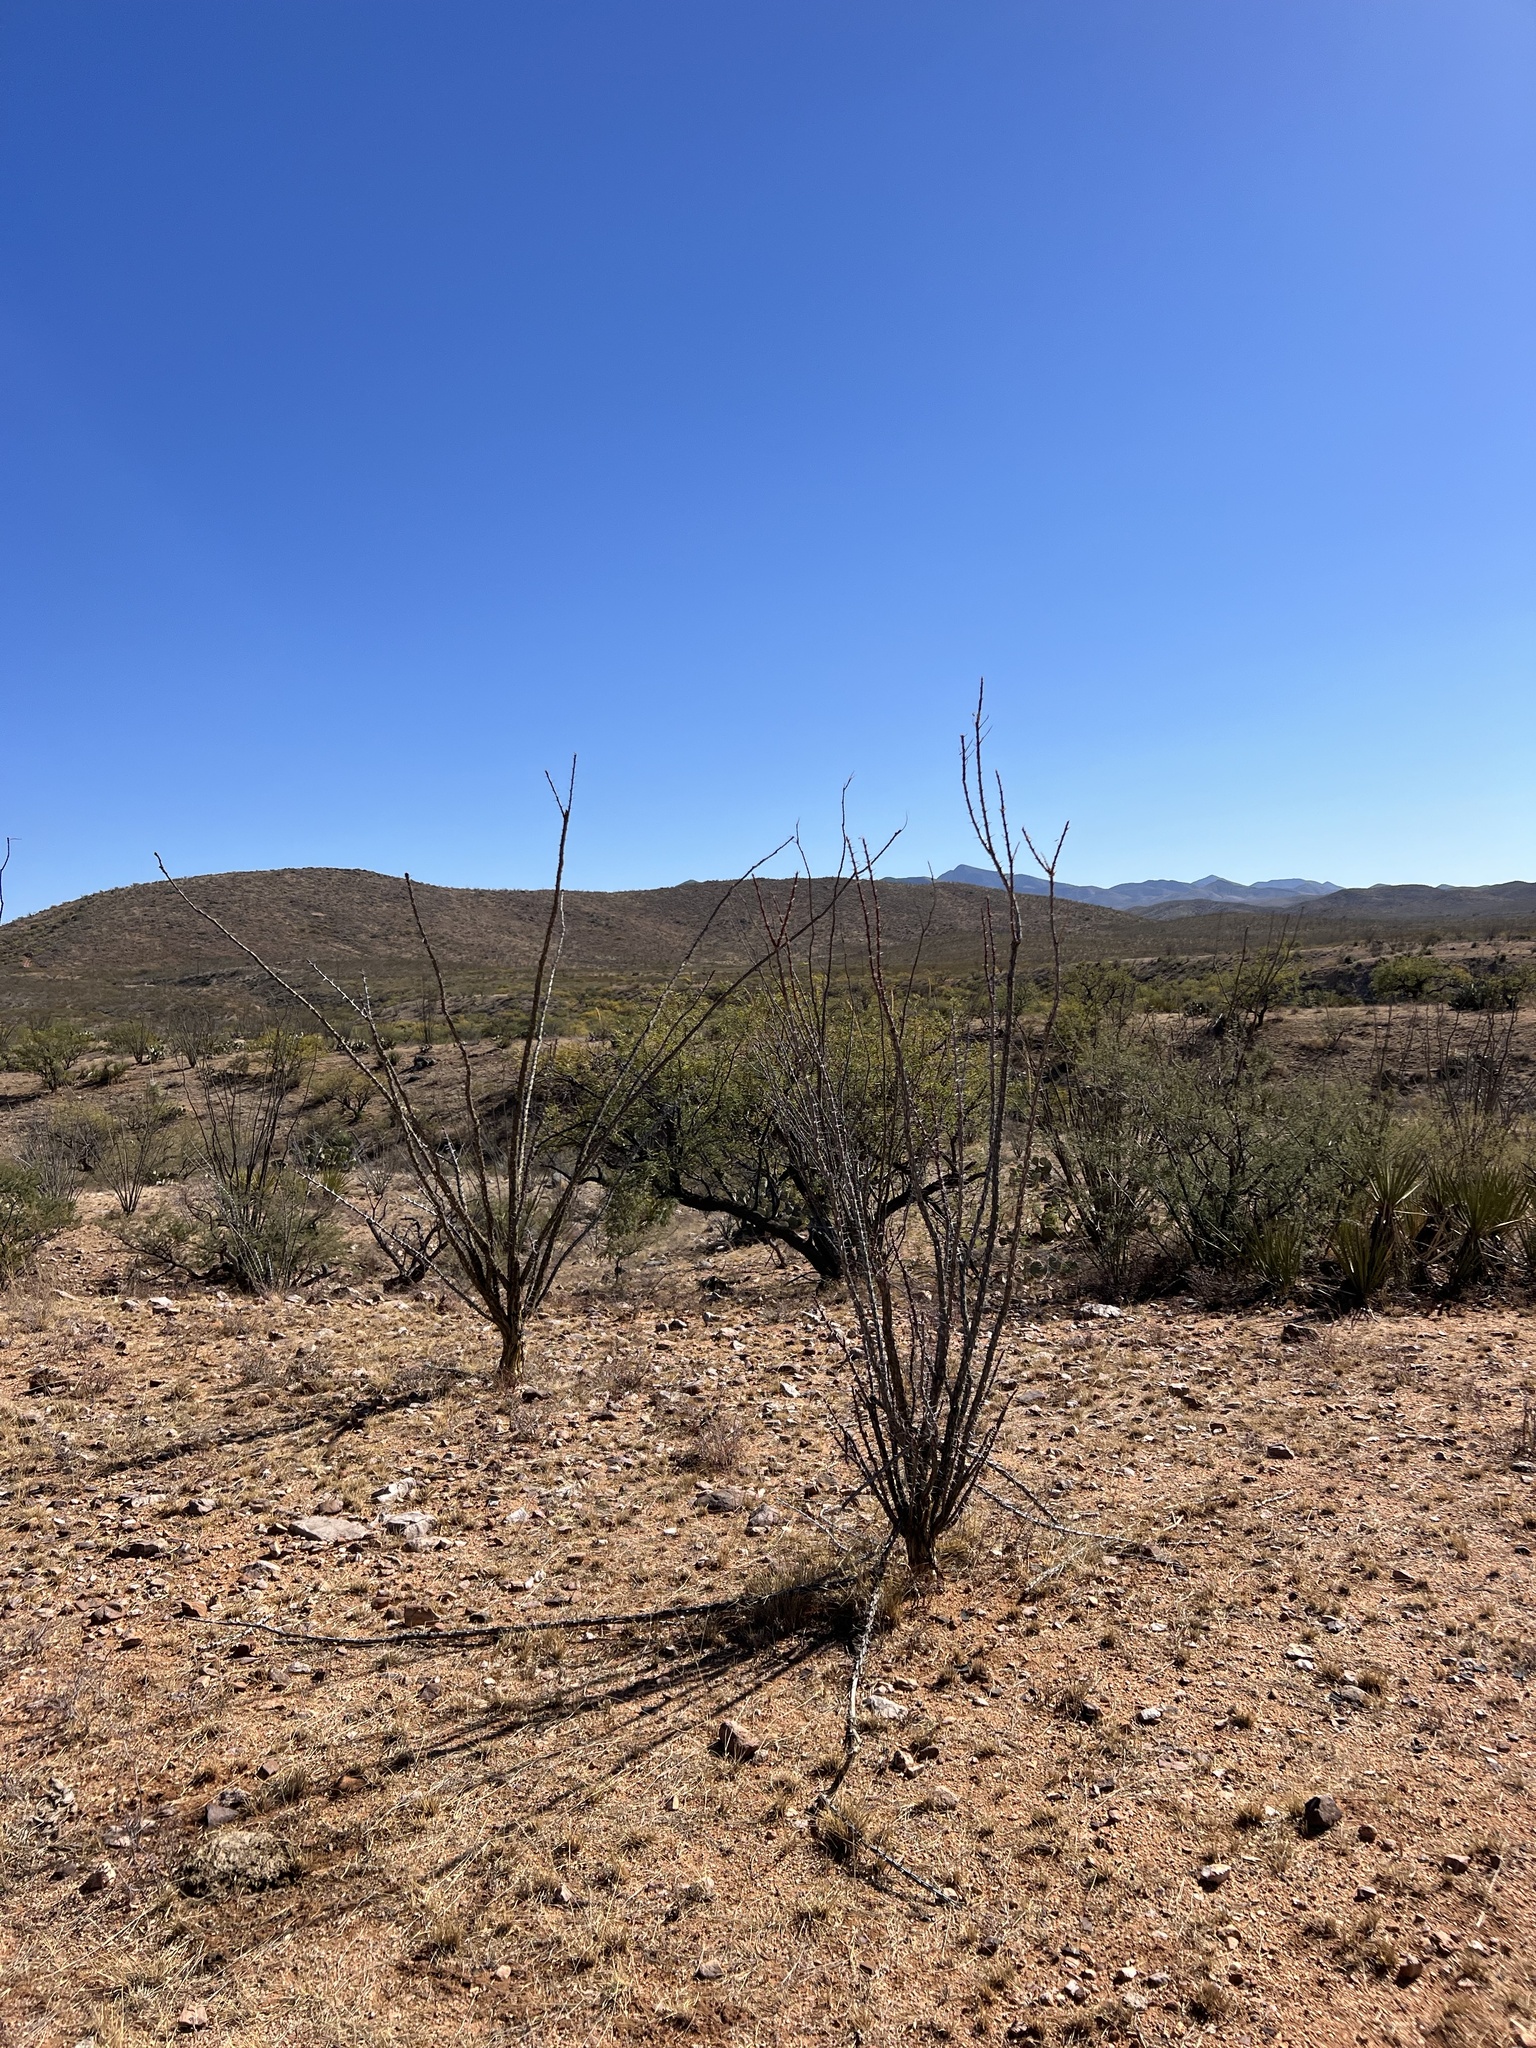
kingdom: Plantae
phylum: Tracheophyta
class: Magnoliopsida
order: Ericales
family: Fouquieriaceae
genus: Fouquieria
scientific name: Fouquieria splendens
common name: Vine-cactus
